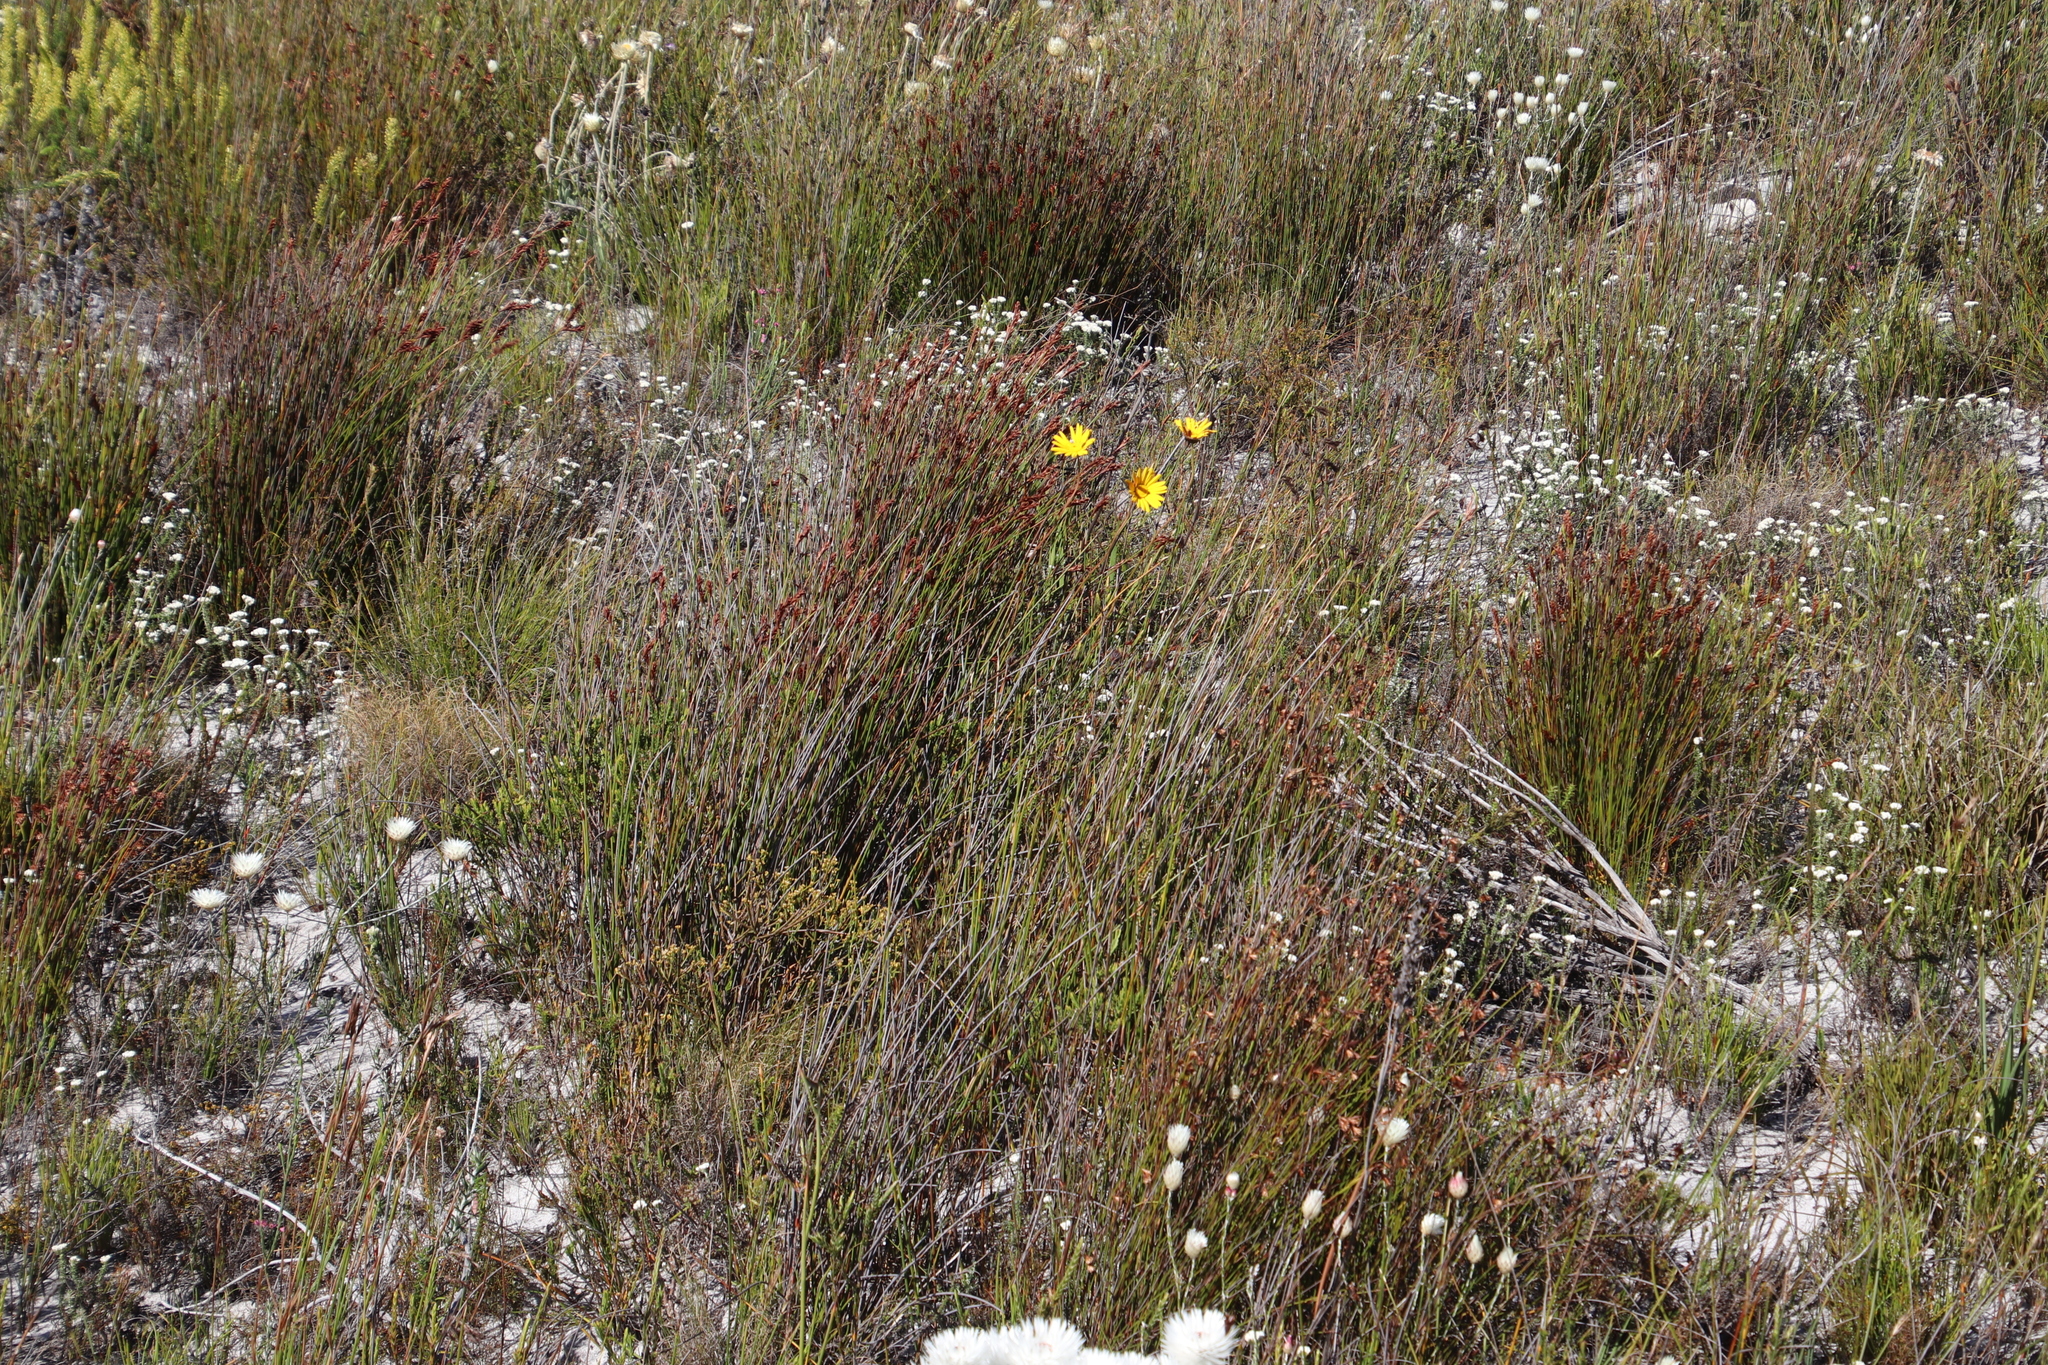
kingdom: Plantae
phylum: Tracheophyta
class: Magnoliopsida
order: Asterales
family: Asteraceae
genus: Ursinia
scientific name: Ursinia paleacea
